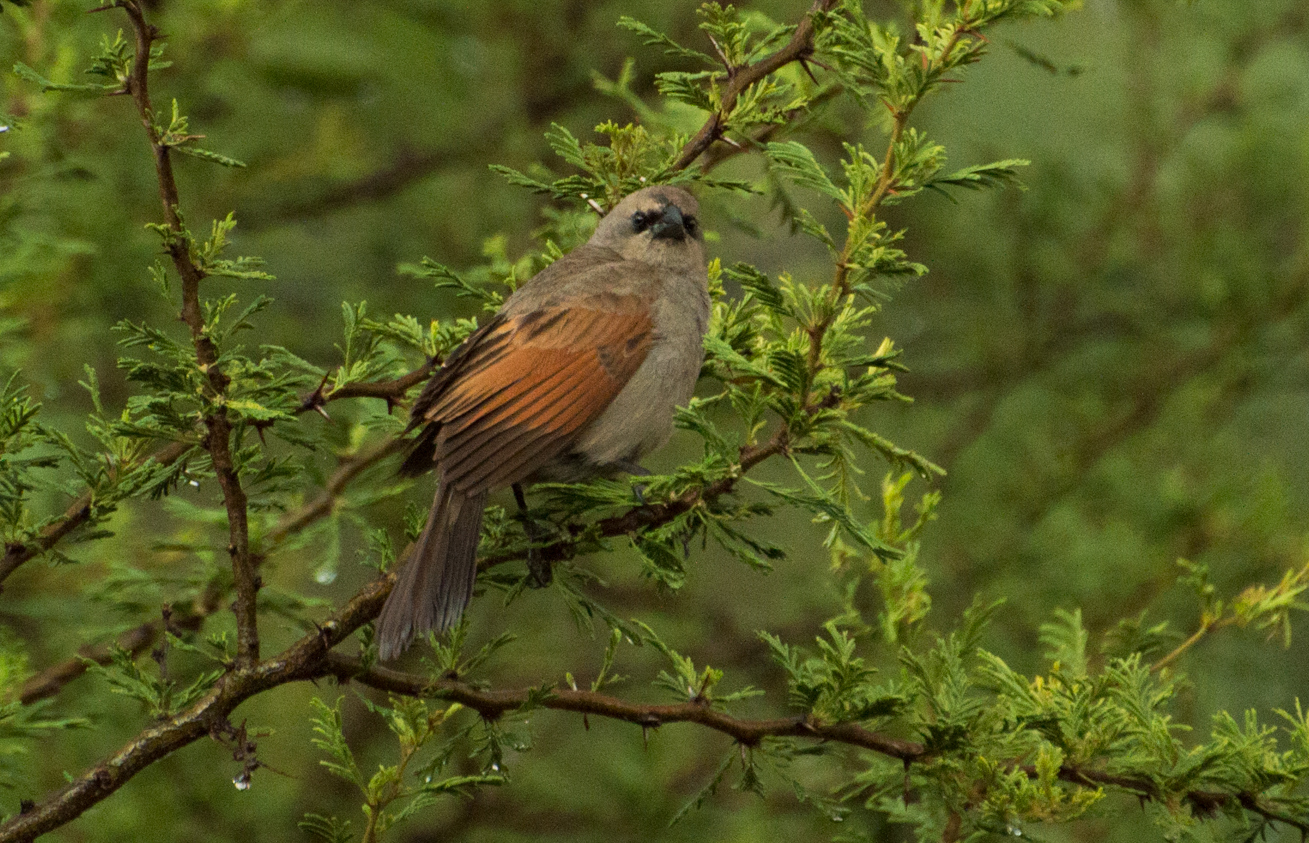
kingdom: Animalia
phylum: Chordata
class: Aves
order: Passeriformes
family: Icteridae
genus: Agelaioides
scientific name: Agelaioides badius
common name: Baywing
